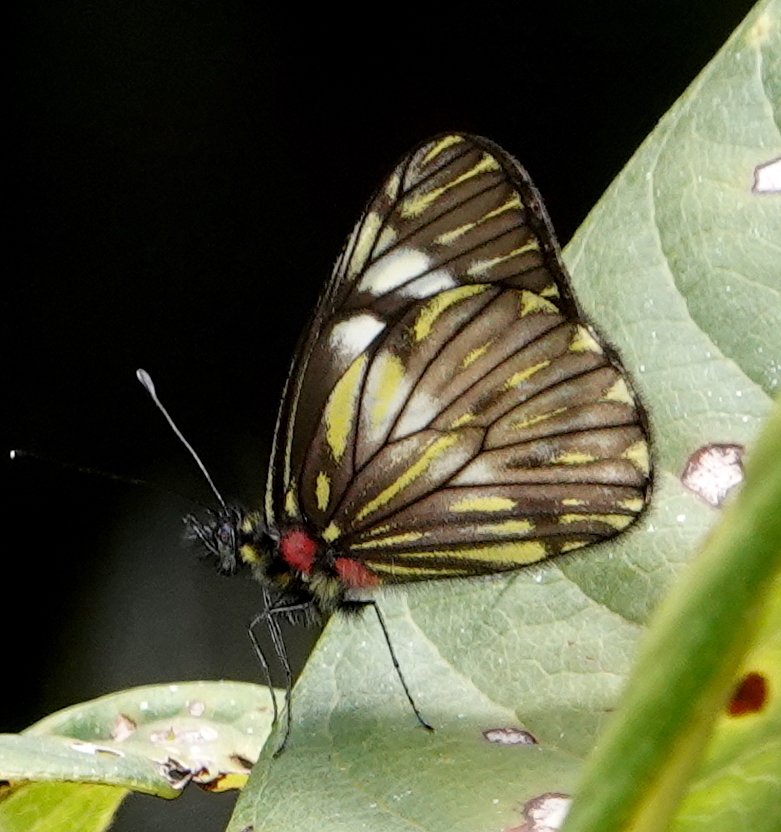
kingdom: Animalia
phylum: Arthropoda
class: Insecta
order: Lepidoptera
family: Pieridae
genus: Catasticta
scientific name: Catasticta seitzi
